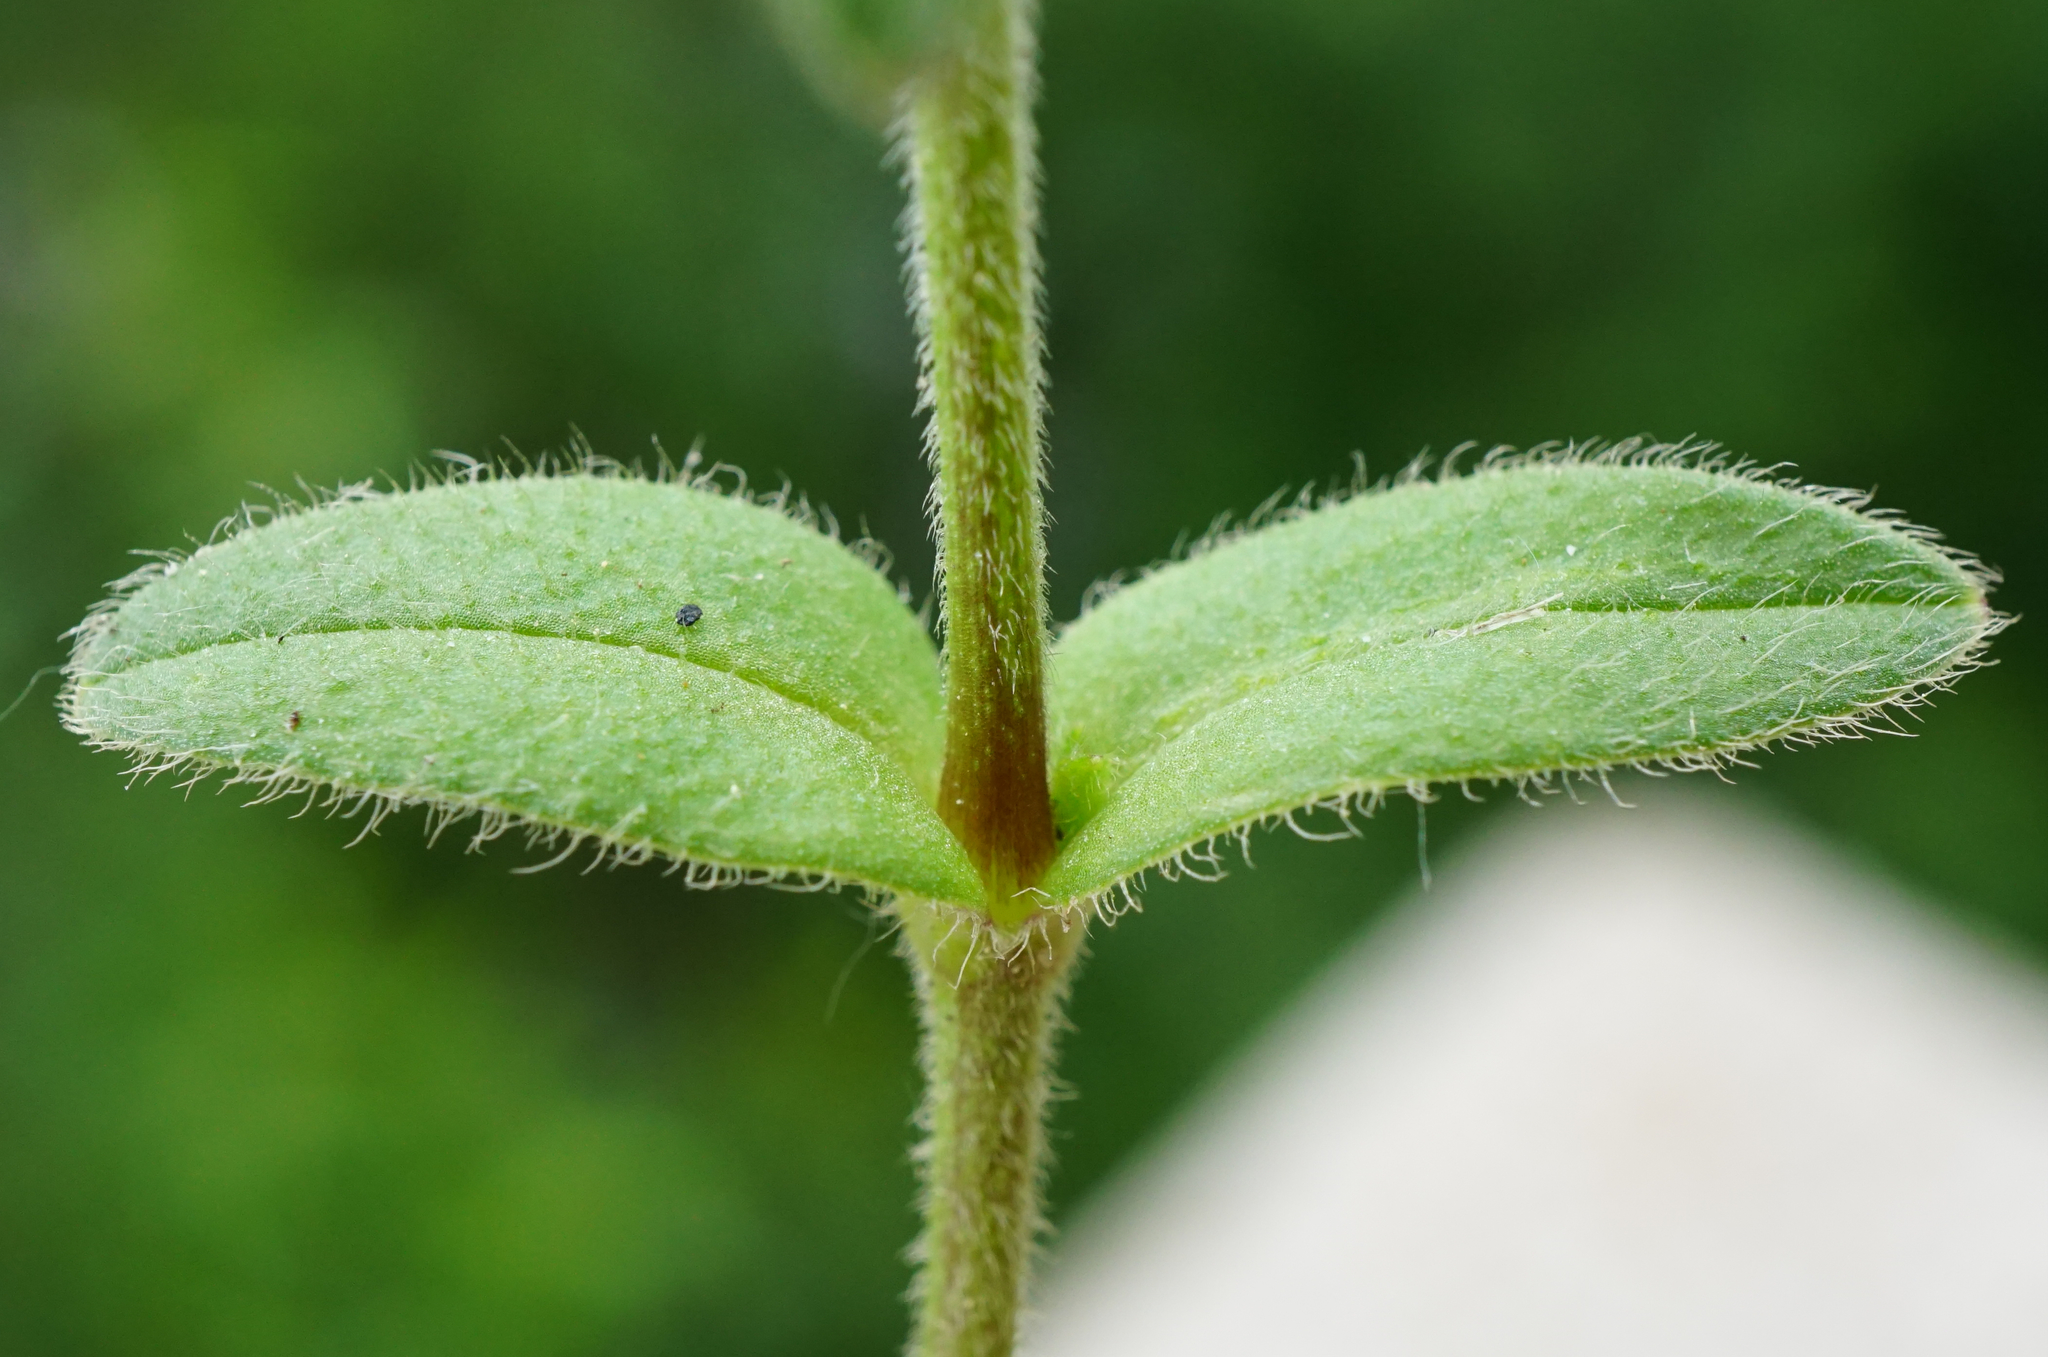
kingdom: Plantae
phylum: Tracheophyta
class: Magnoliopsida
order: Caryophyllales
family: Caryophyllaceae
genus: Cerastium
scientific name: Cerastium holosteoides
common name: Big chickweed
